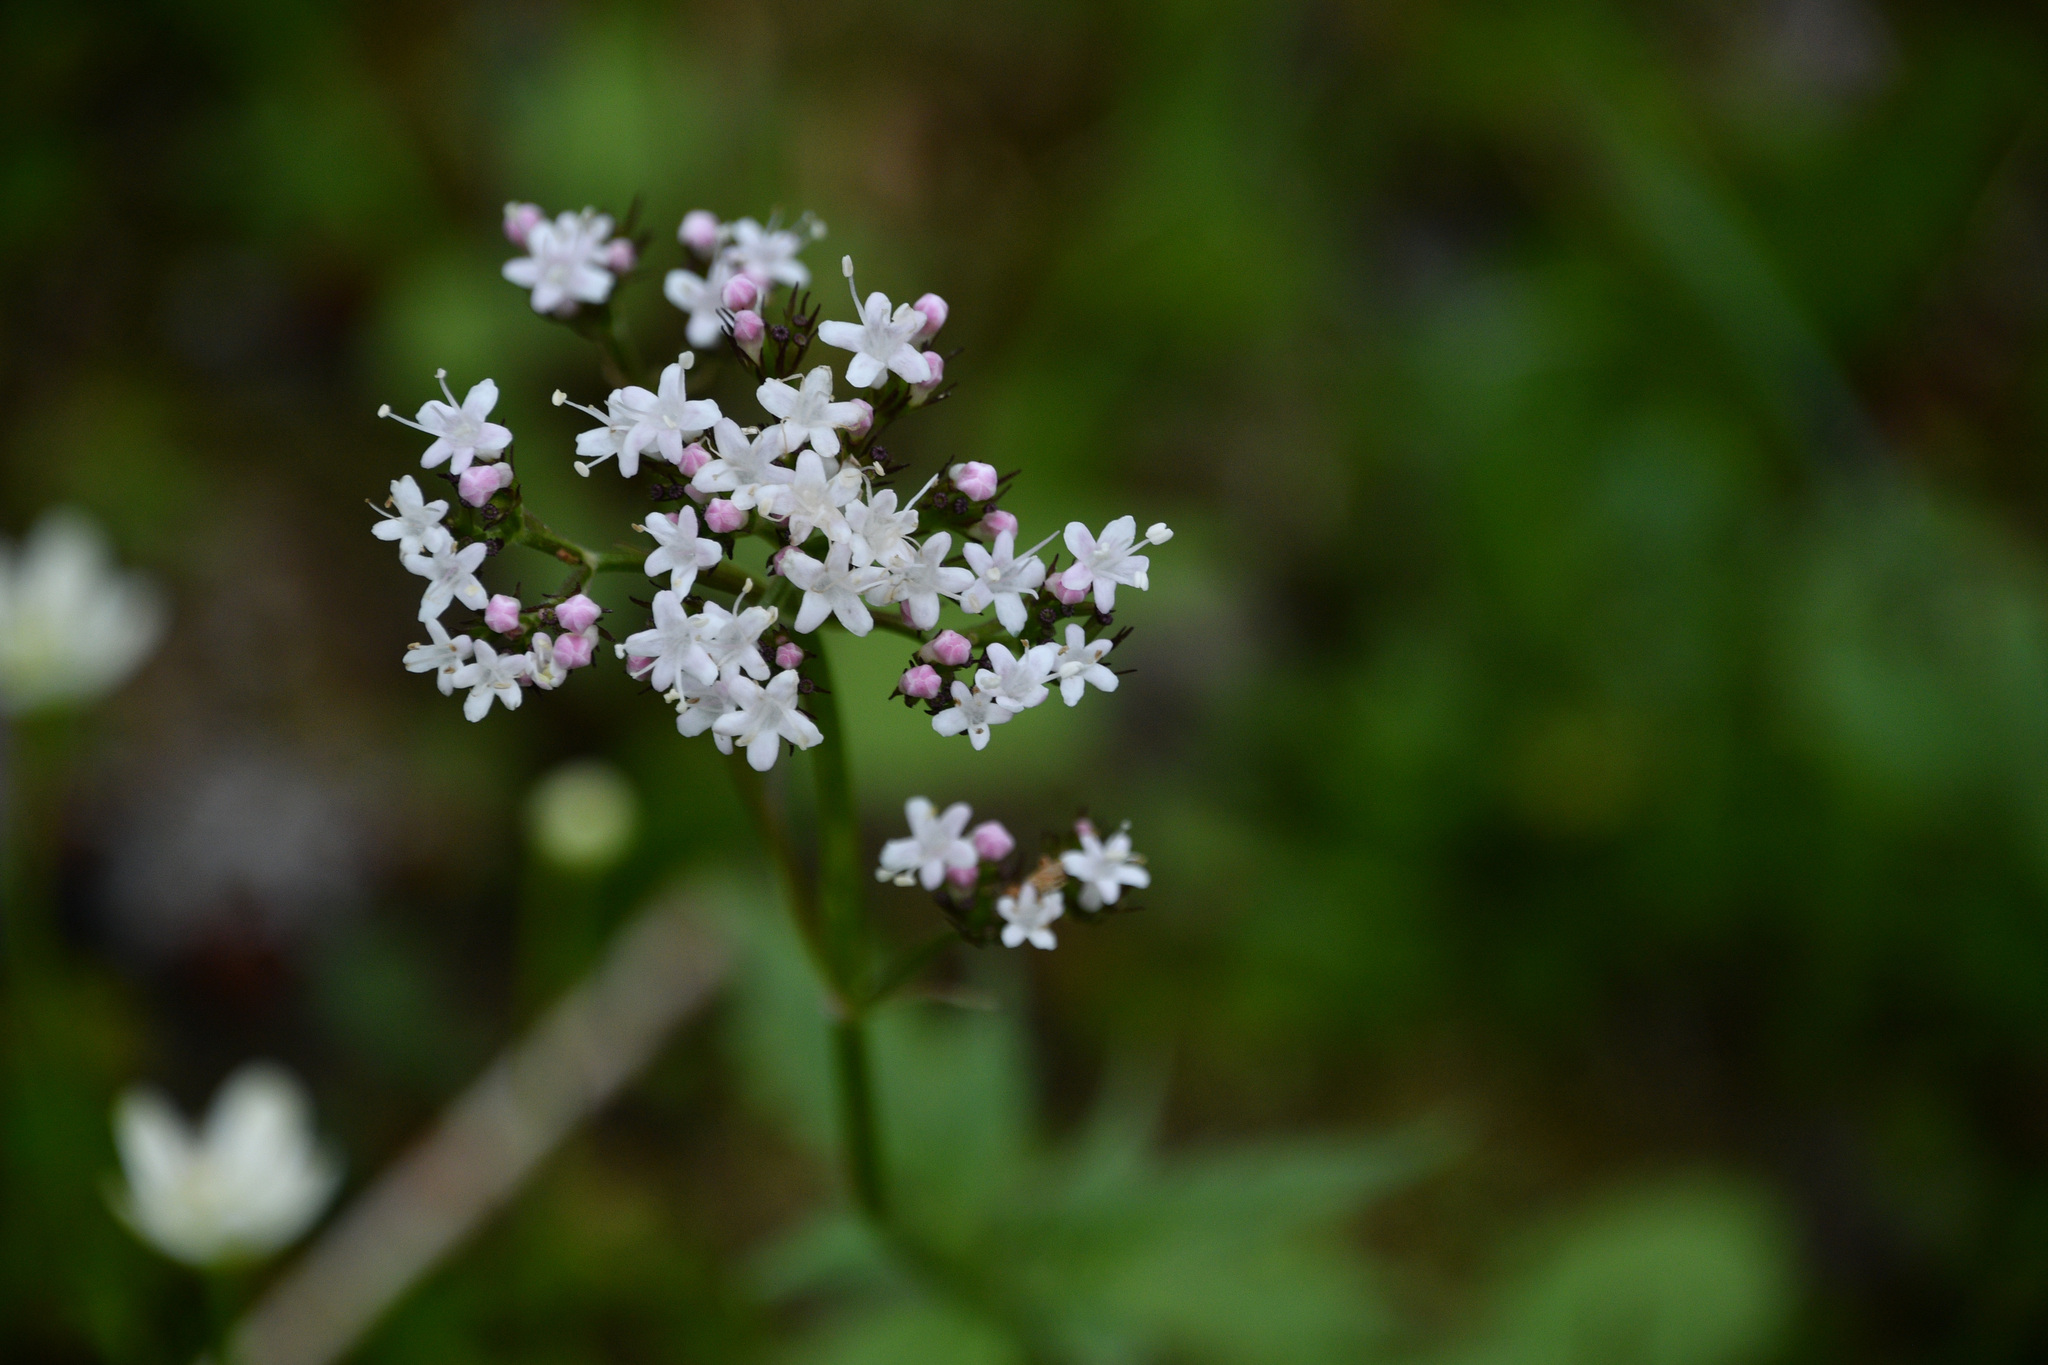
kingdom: Plantae
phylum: Tracheophyta
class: Magnoliopsida
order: Dipsacales
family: Caprifoliaceae
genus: Valeriana
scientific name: Valeriana sitchensis
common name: Pacific valerian
